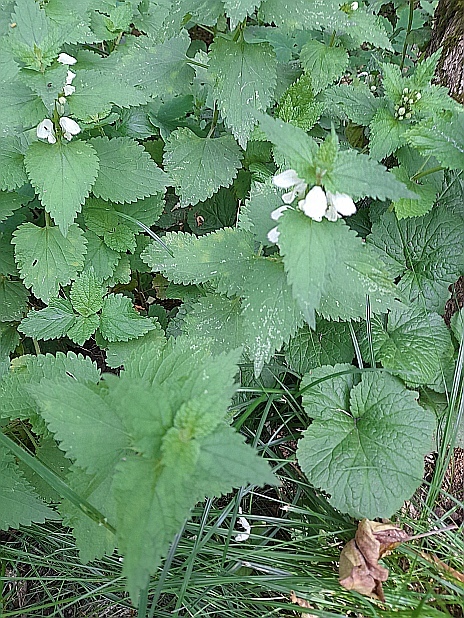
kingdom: Plantae
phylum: Tracheophyta
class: Magnoliopsida
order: Lamiales
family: Lamiaceae
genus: Lamium
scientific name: Lamium album
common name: White dead-nettle
